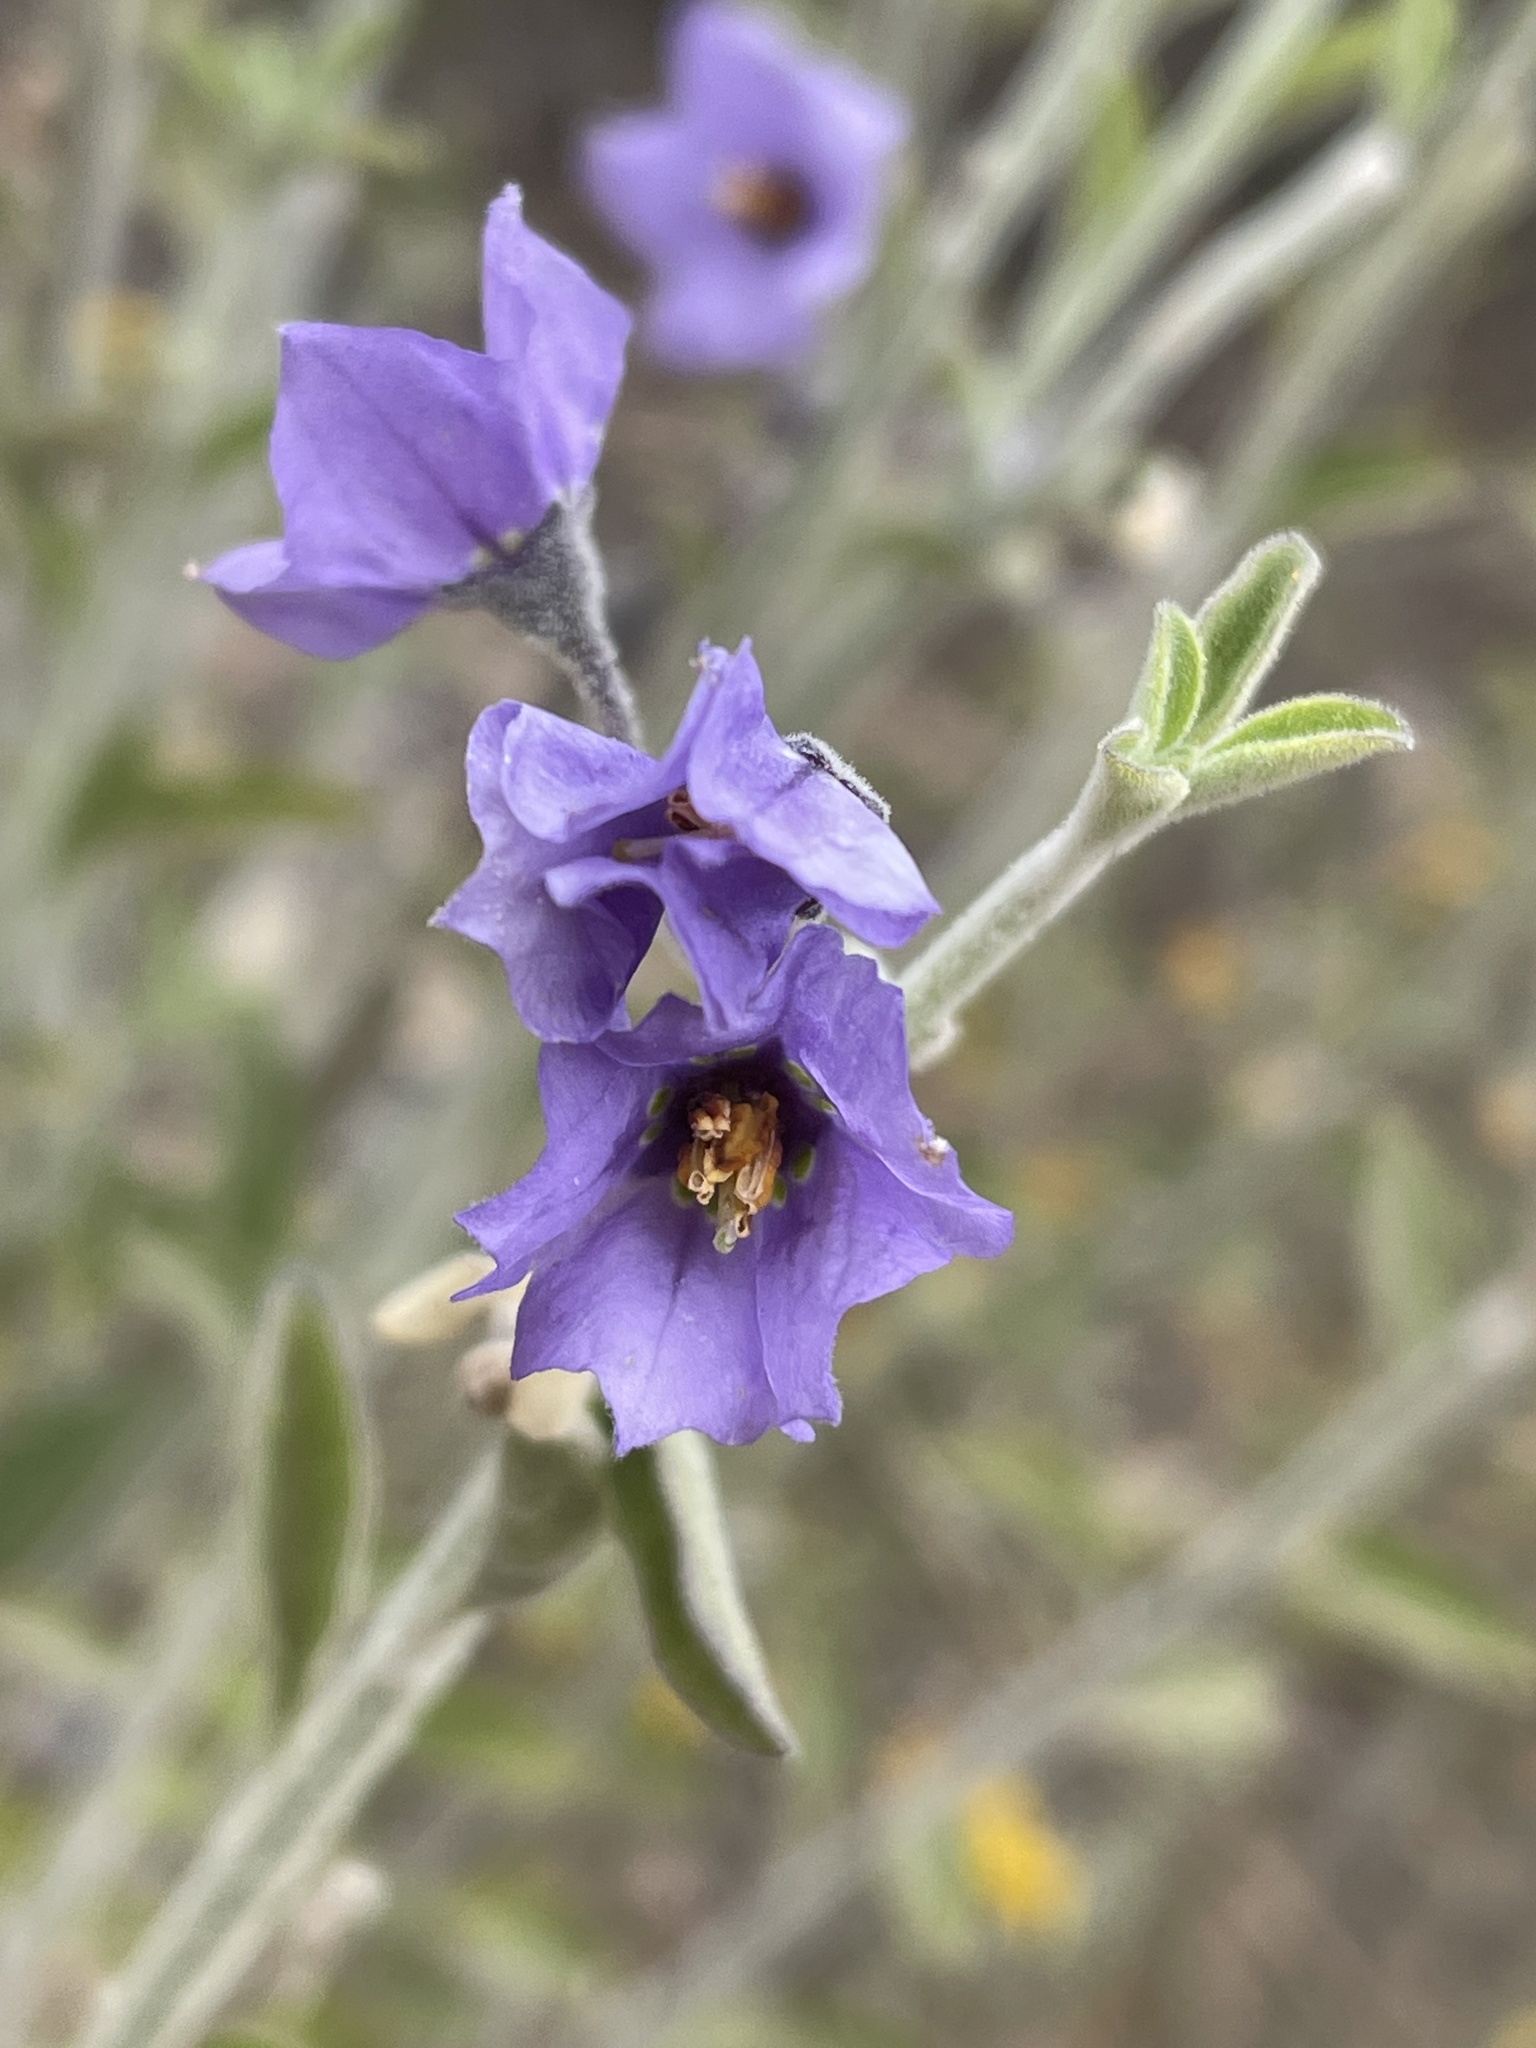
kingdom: Plantae
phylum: Tracheophyta
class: Magnoliopsida
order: Solanales
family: Solanaceae
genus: Solanum
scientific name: Solanum umbelliferum
